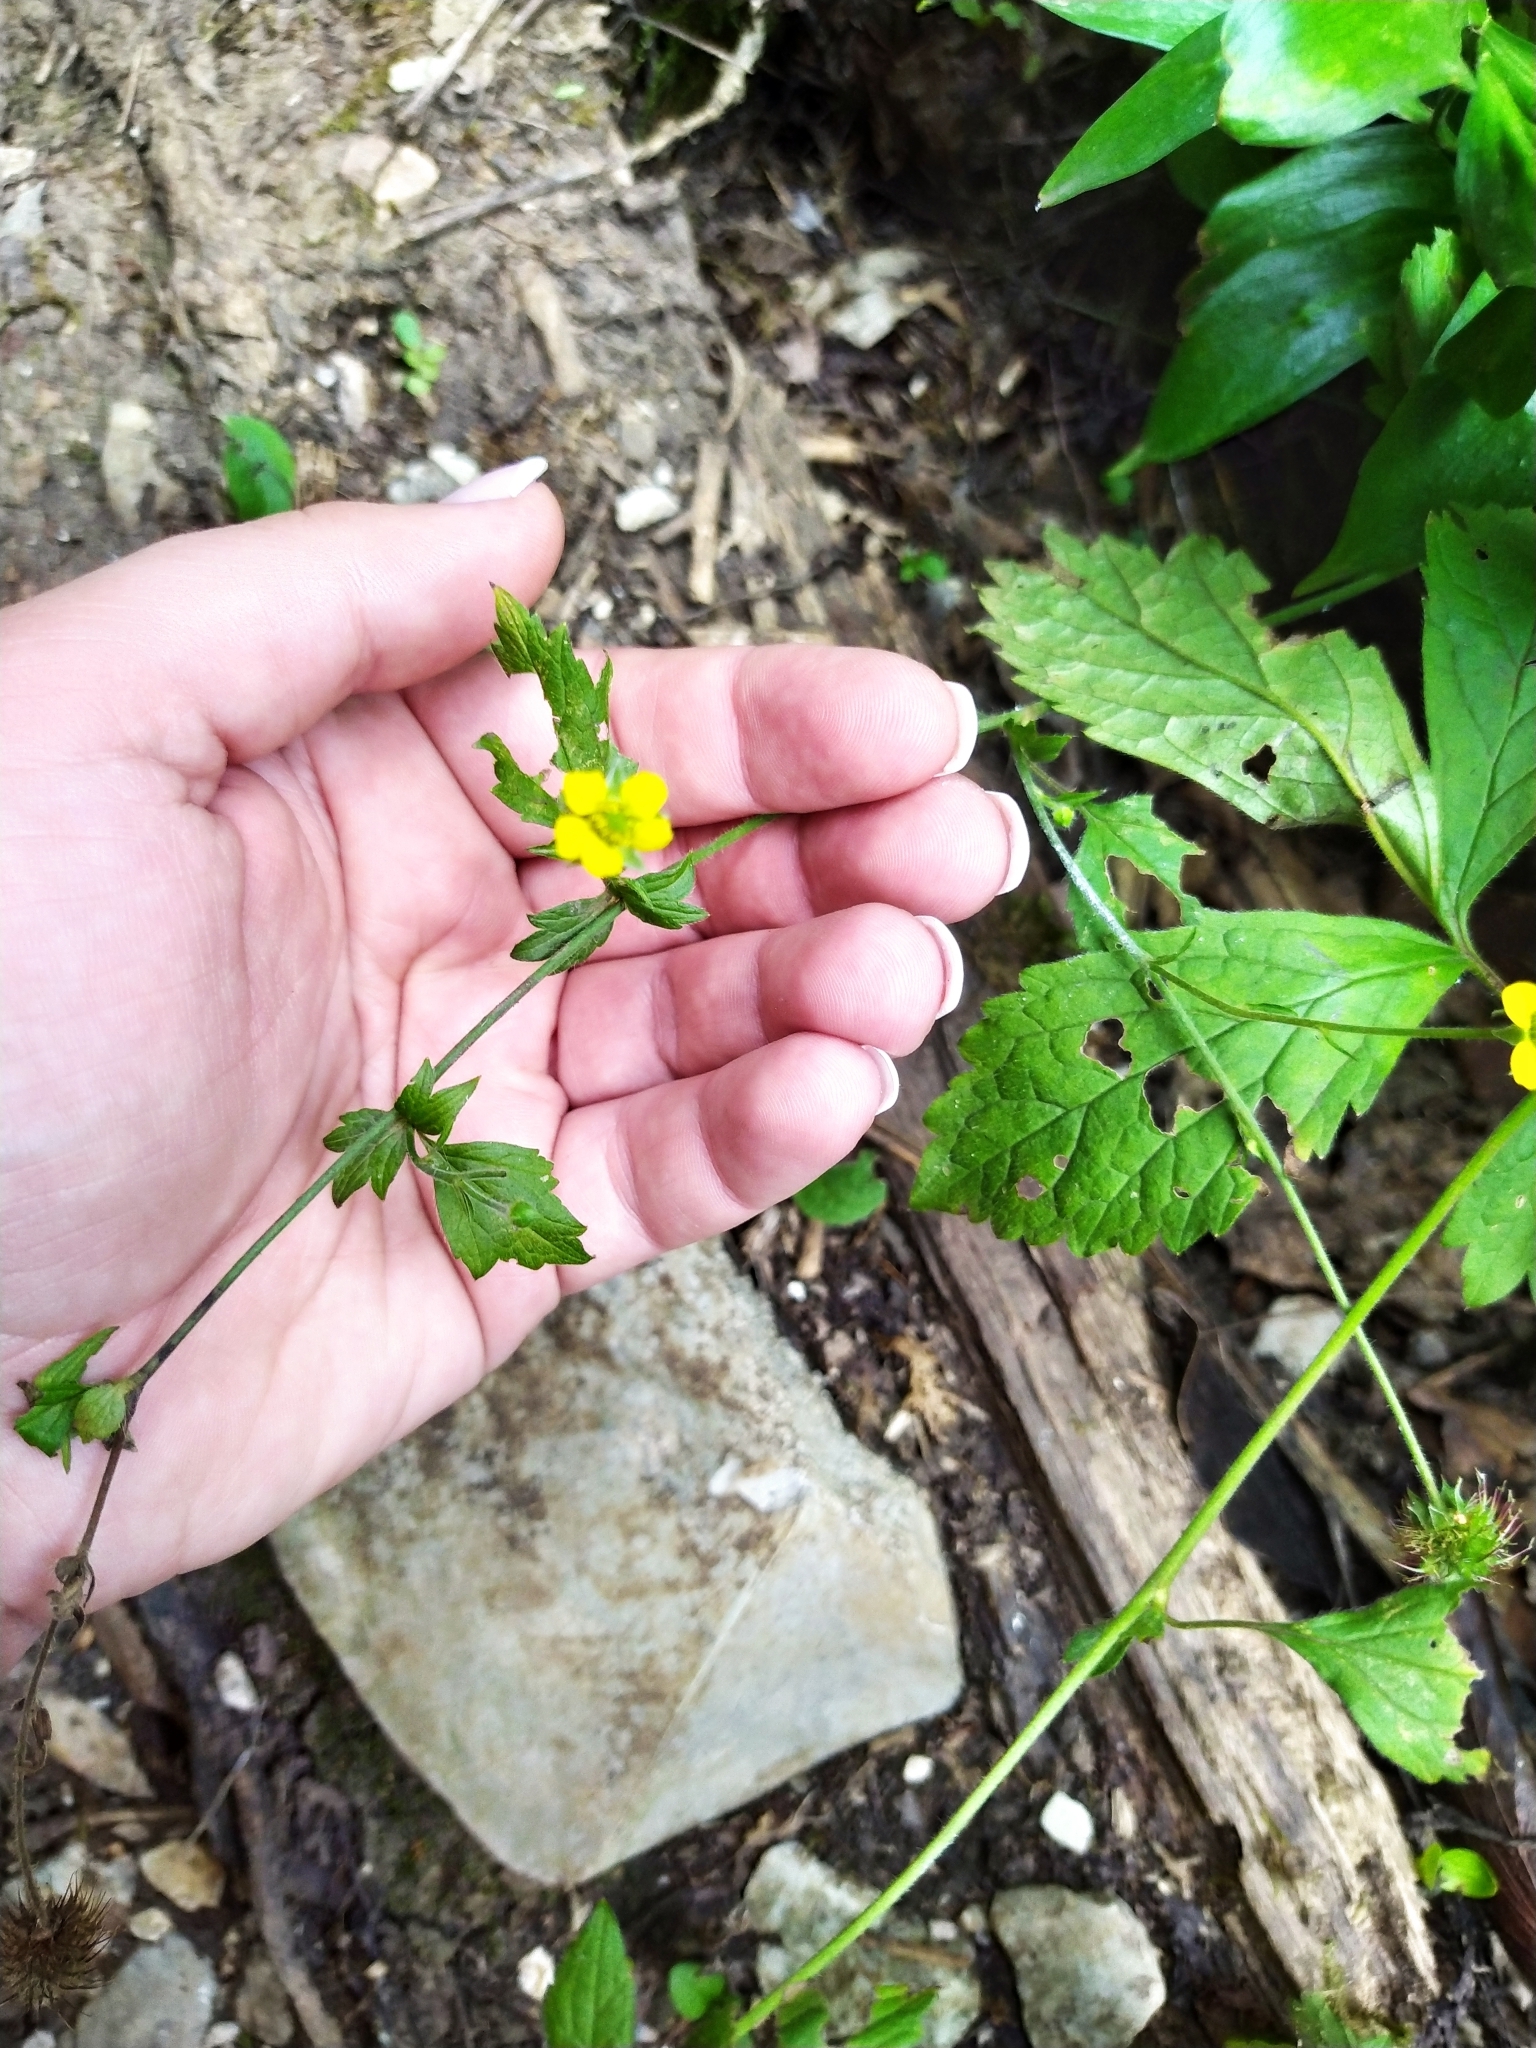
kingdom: Plantae
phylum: Tracheophyta
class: Magnoliopsida
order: Rosales
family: Rosaceae
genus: Geum
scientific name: Geum urbanum
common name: Wood avens
